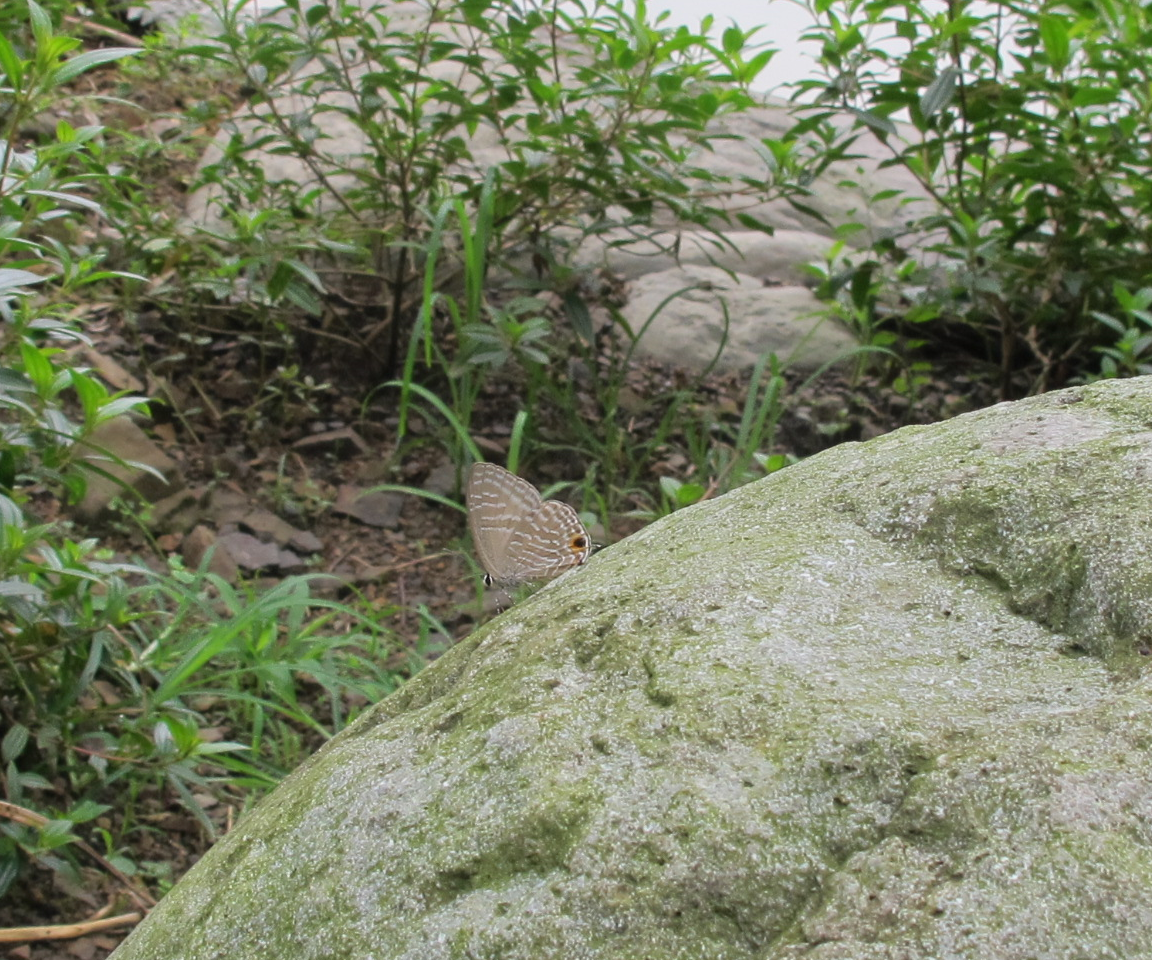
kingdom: Animalia
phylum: Arthropoda
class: Insecta
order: Lepidoptera
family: Lycaenidae
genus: Jamides
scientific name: Jamides alecto
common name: Metallic cerulean
